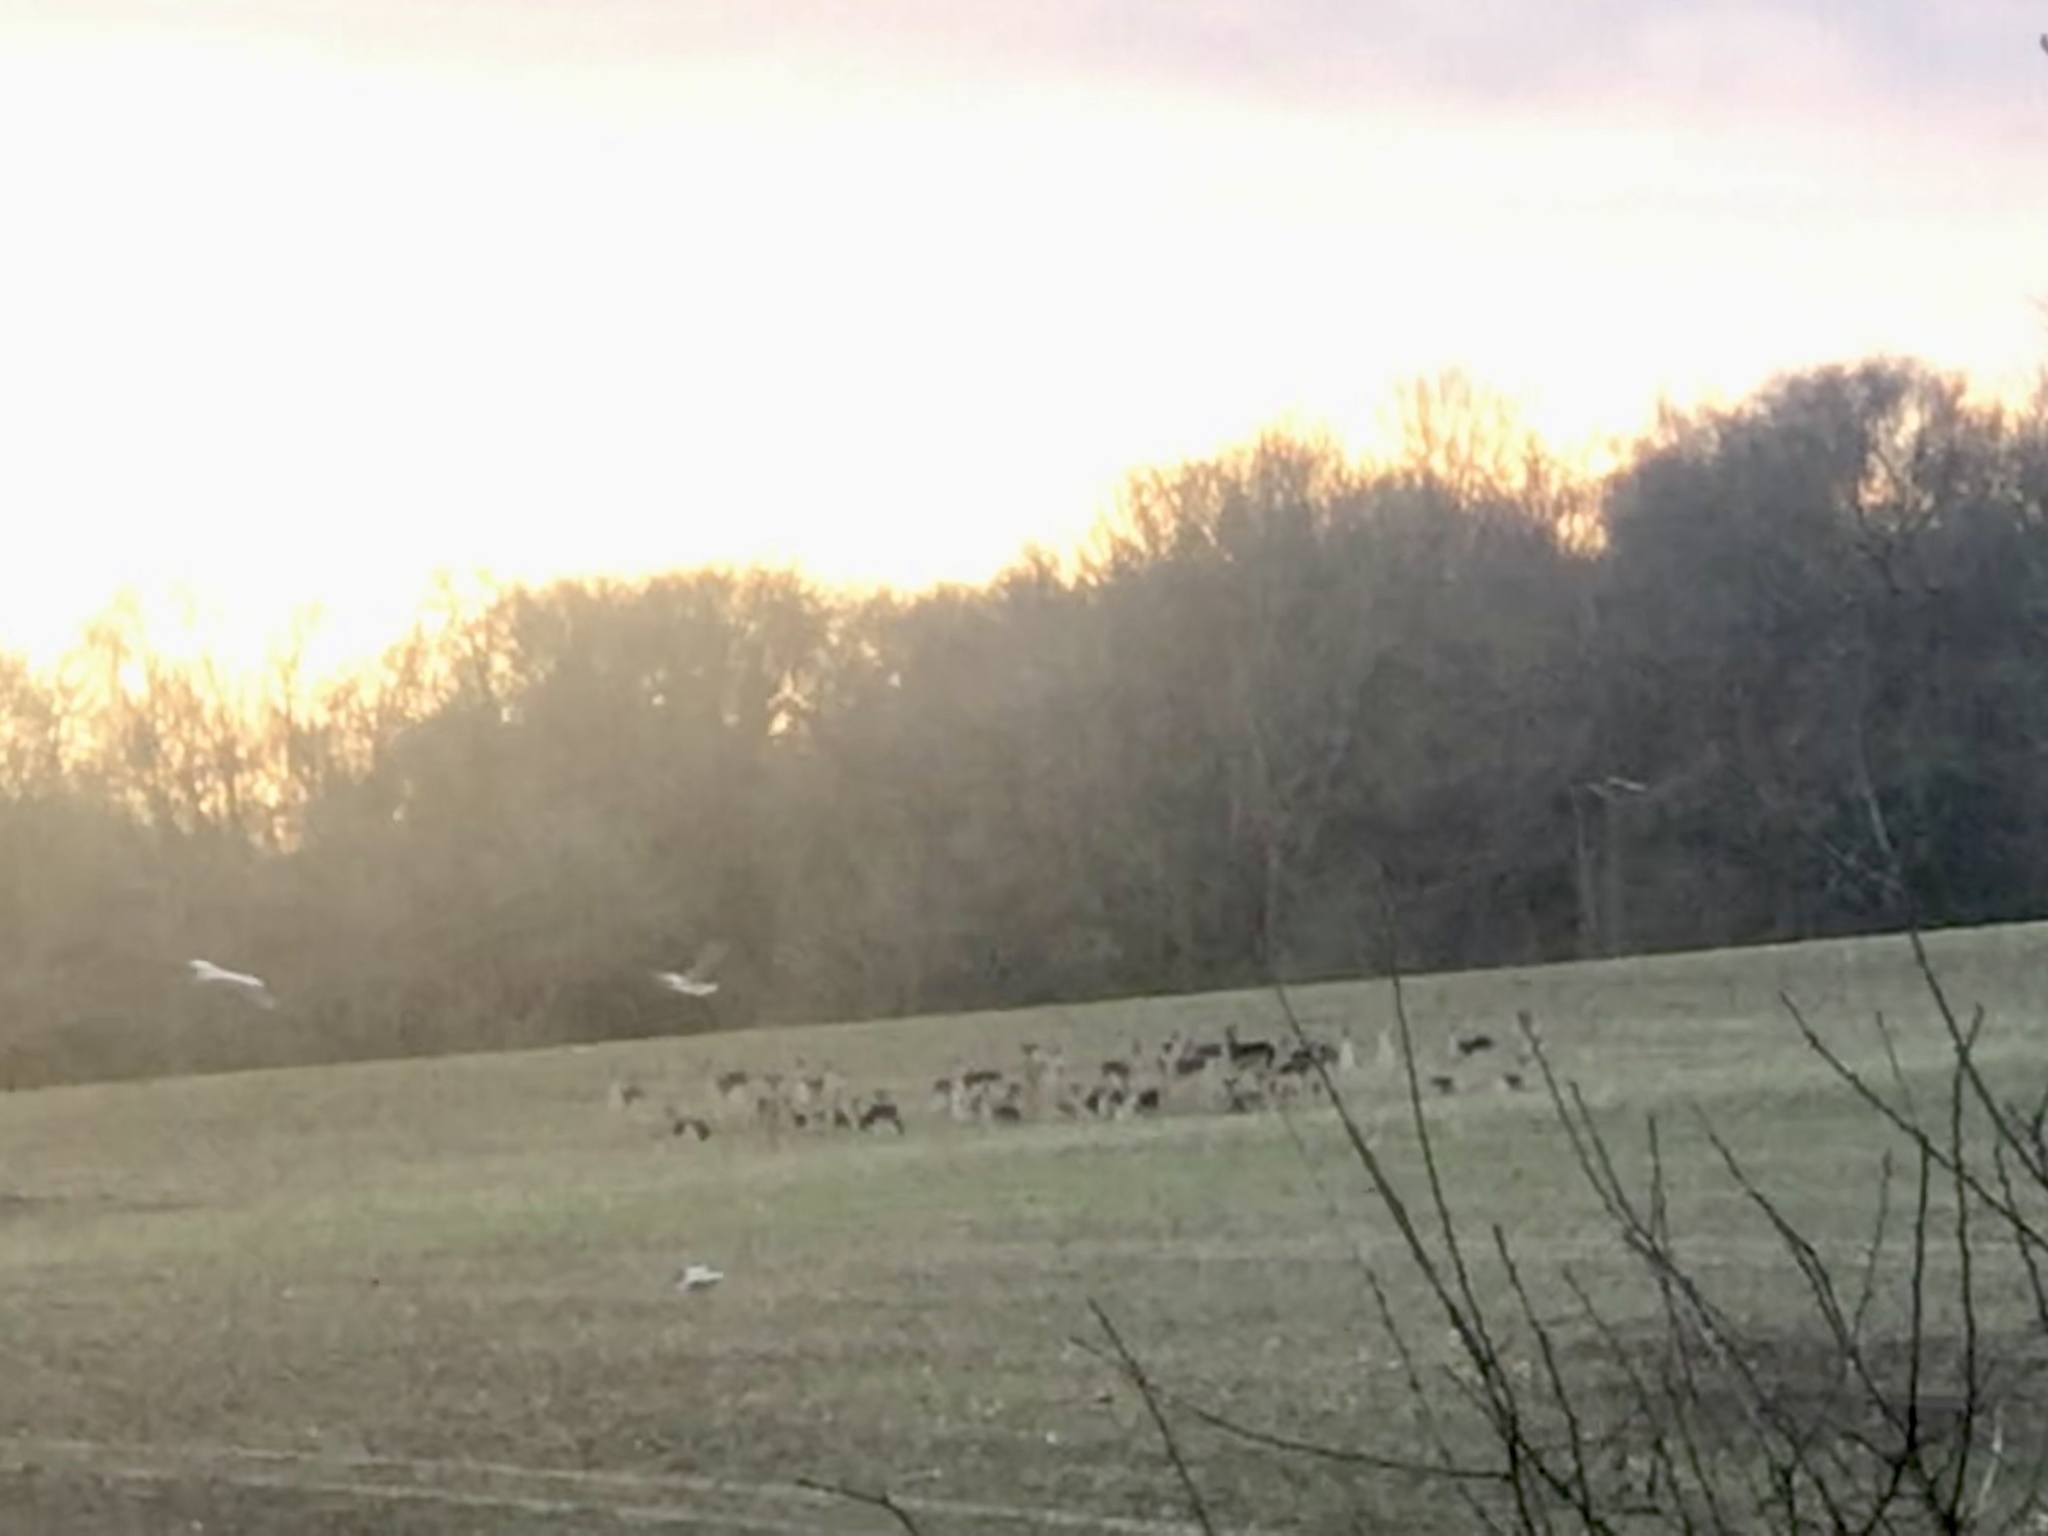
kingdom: Animalia
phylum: Chordata
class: Mammalia
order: Artiodactyla
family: Cervidae
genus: Dama
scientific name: Dama dama
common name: Fallow deer
